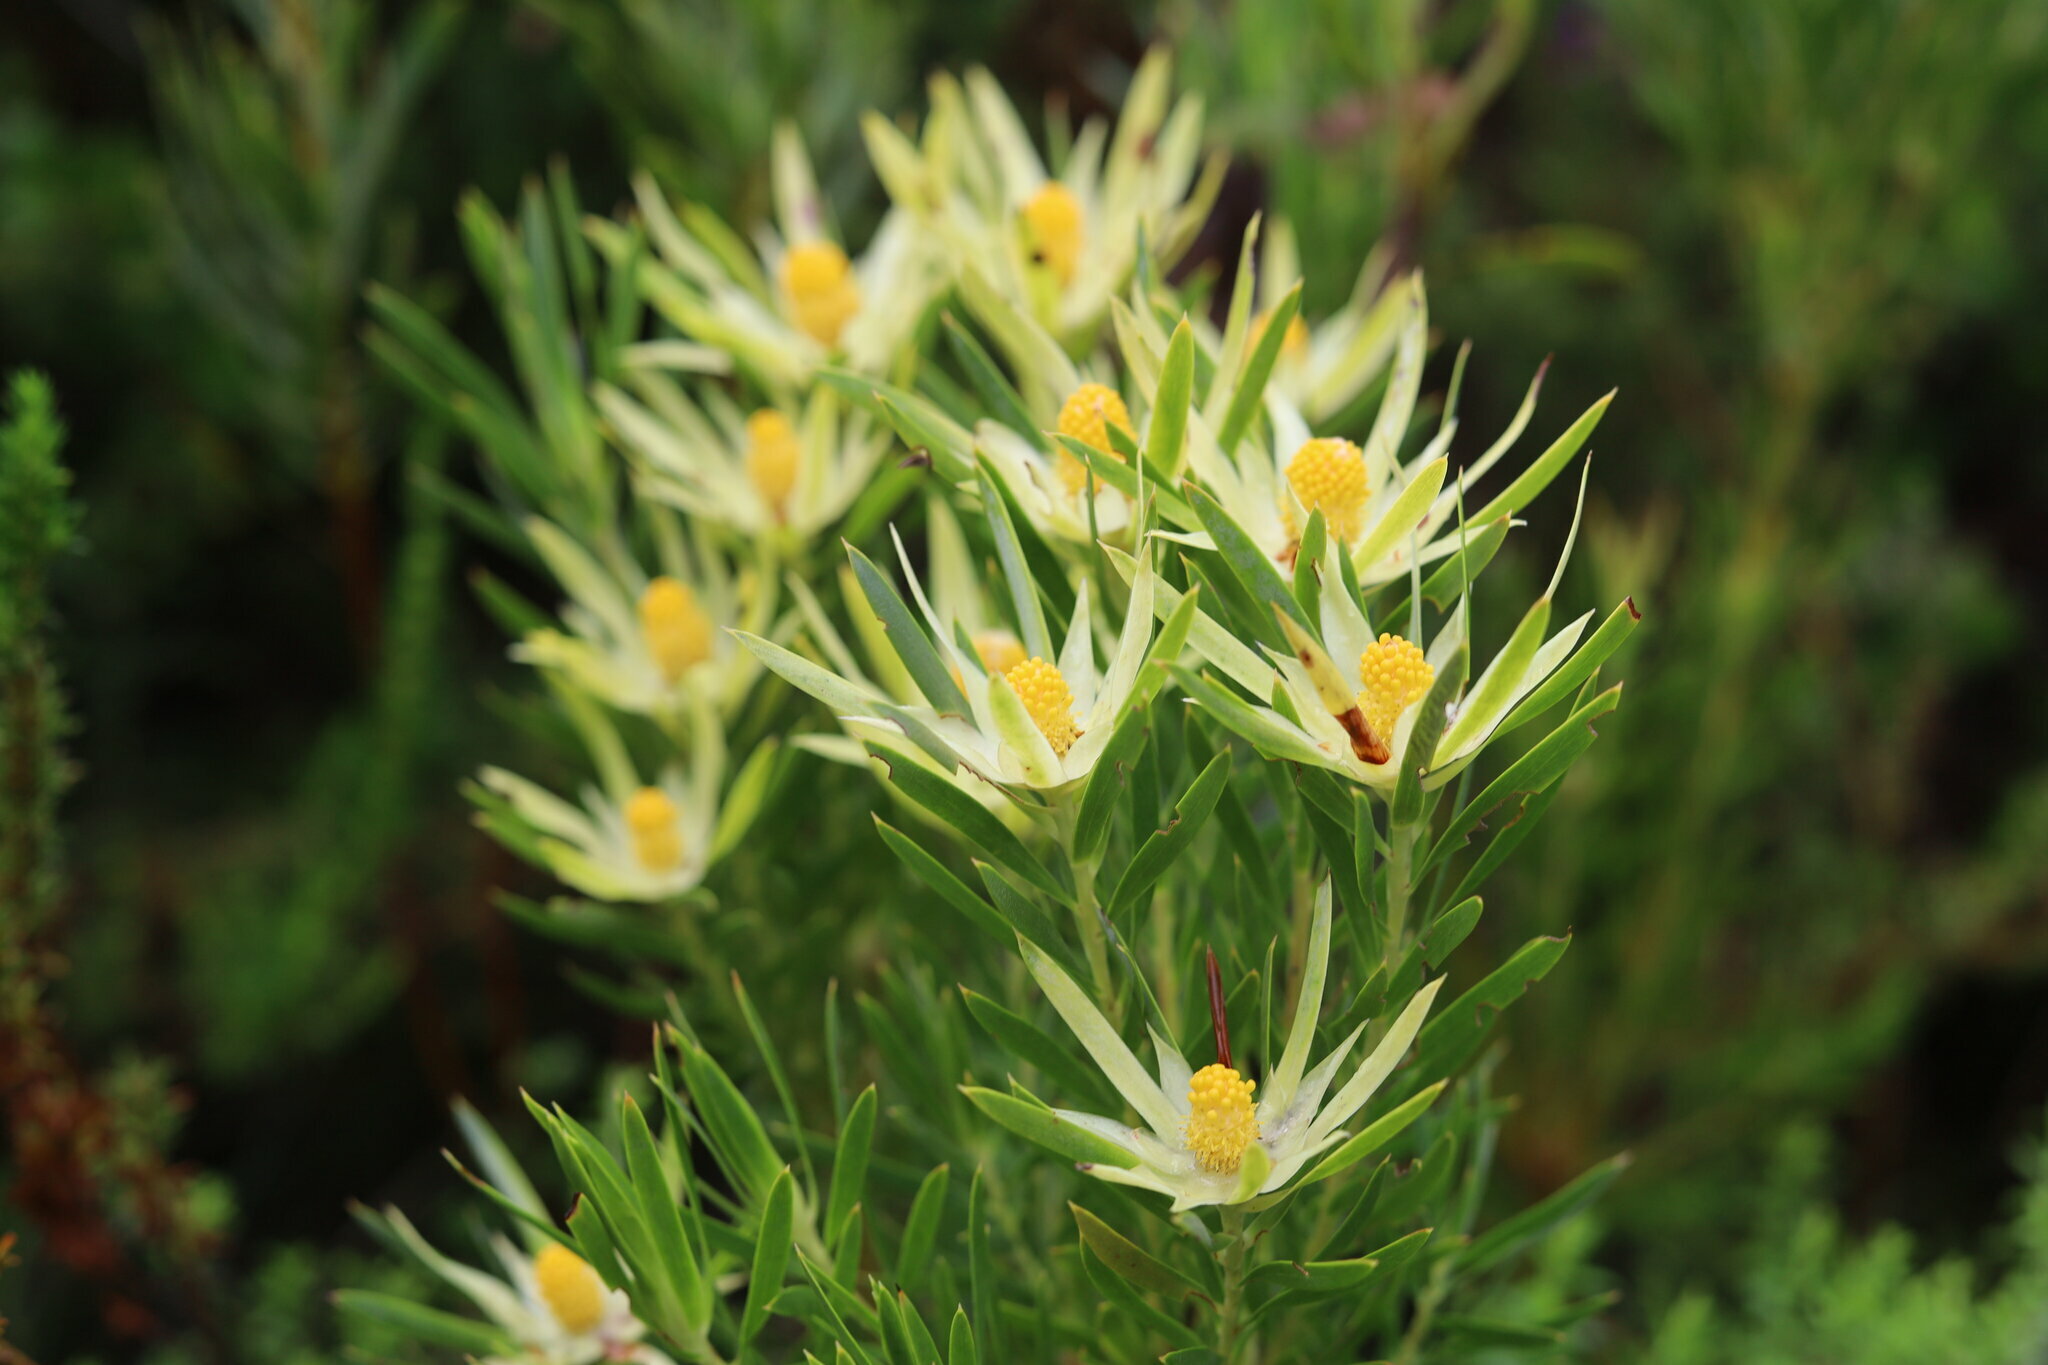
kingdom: Plantae
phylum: Tracheophyta
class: Magnoliopsida
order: Proteales
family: Proteaceae
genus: Leucadendron
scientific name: Leucadendron xanthoconus
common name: Sickle-leaf conebush
